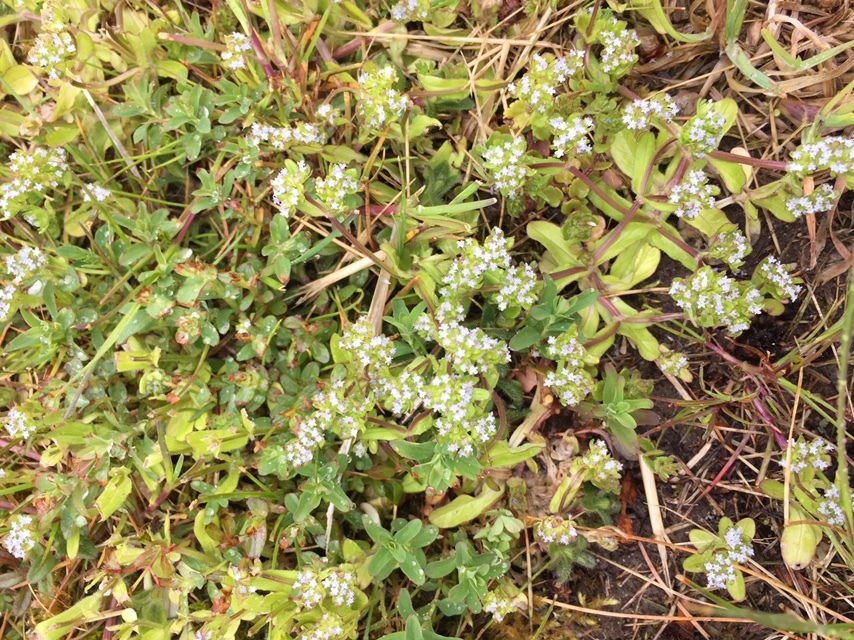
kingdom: Plantae
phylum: Tracheophyta
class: Magnoliopsida
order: Dipsacales
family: Caprifoliaceae
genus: Valerianella
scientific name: Valerianella locusta
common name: Common cornsalad
